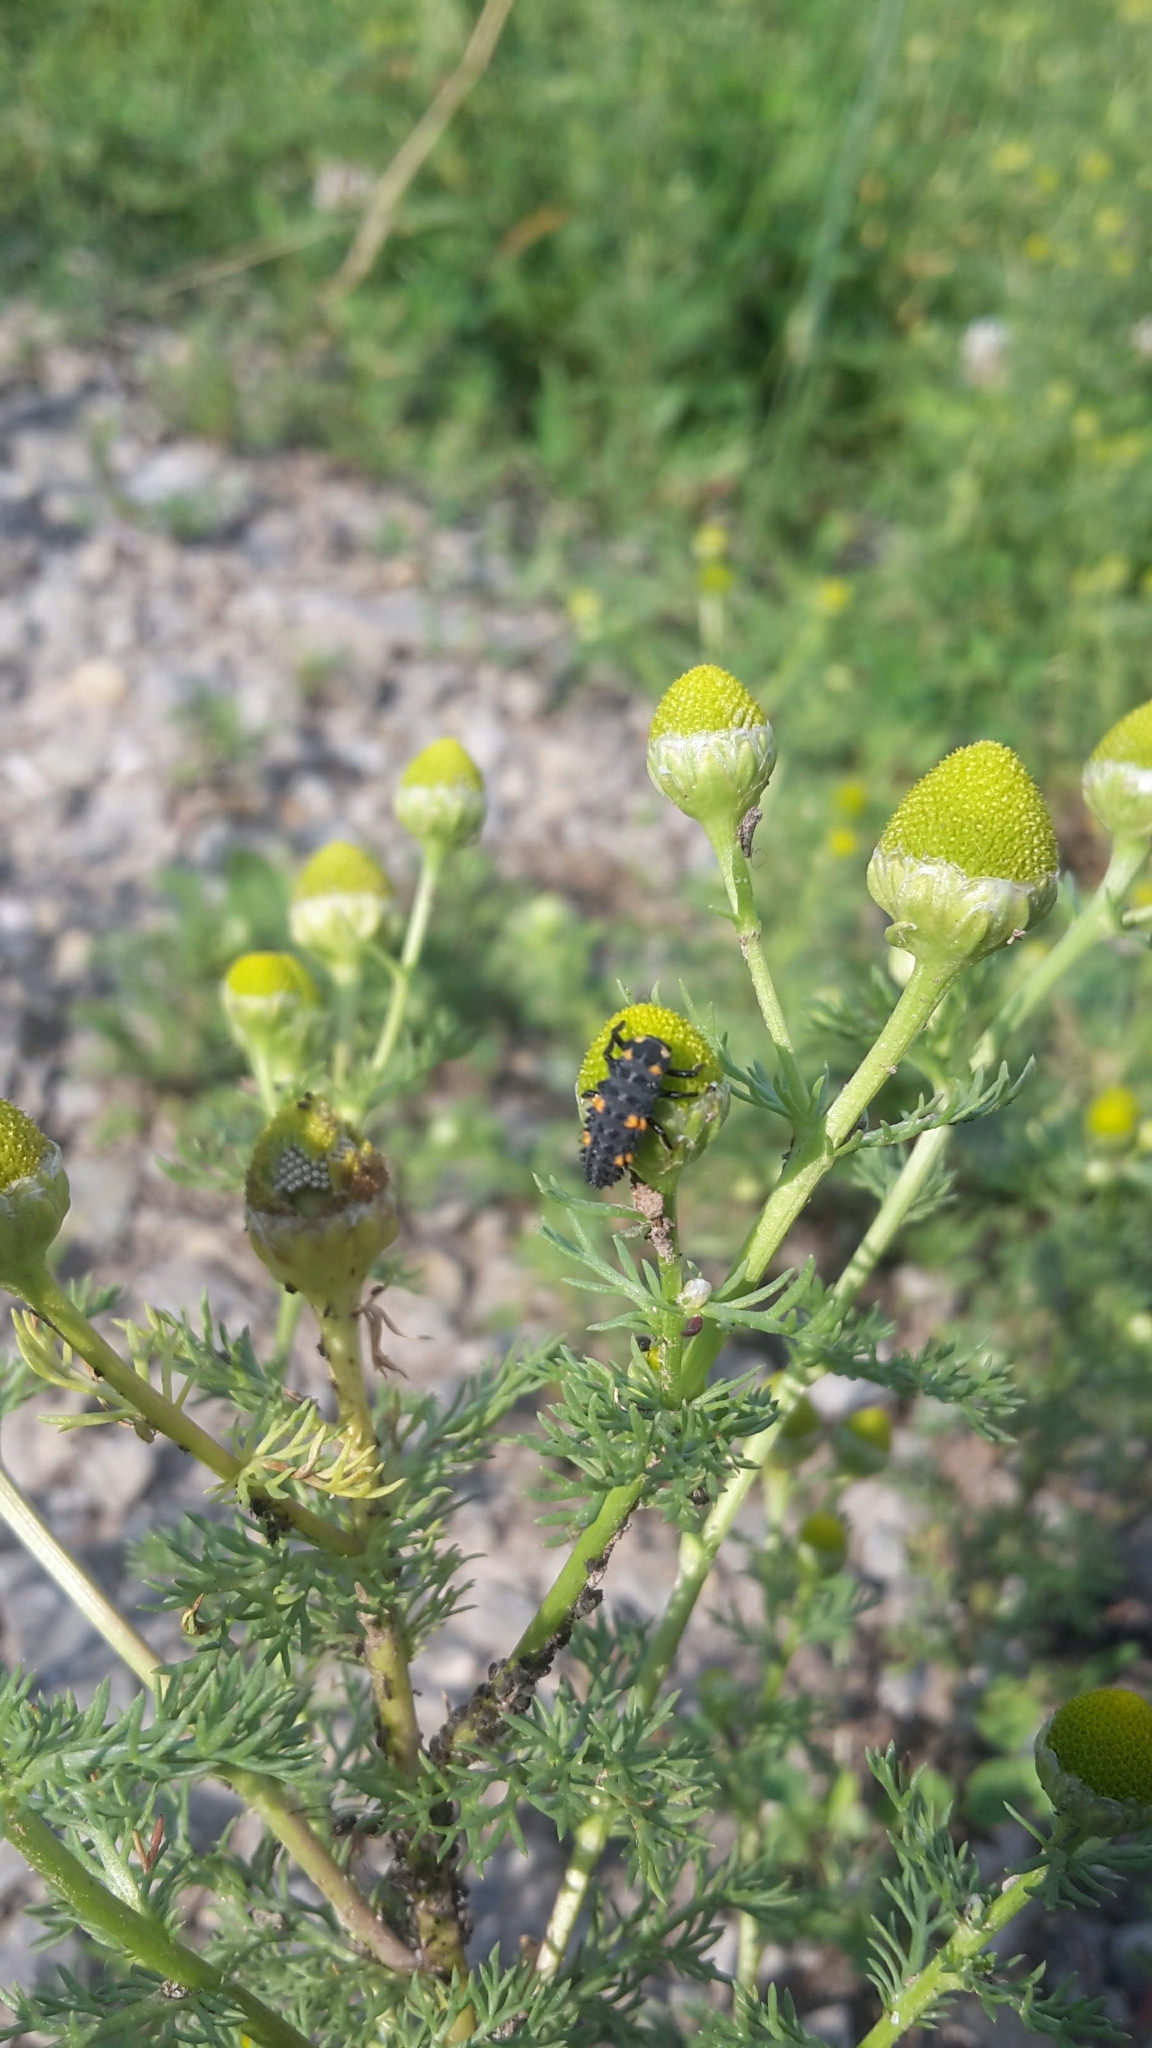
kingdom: Animalia
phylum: Arthropoda
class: Insecta
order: Coleoptera
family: Coccinellidae
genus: Coccinella
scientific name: Coccinella septempunctata
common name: Sevenspotted lady beetle
